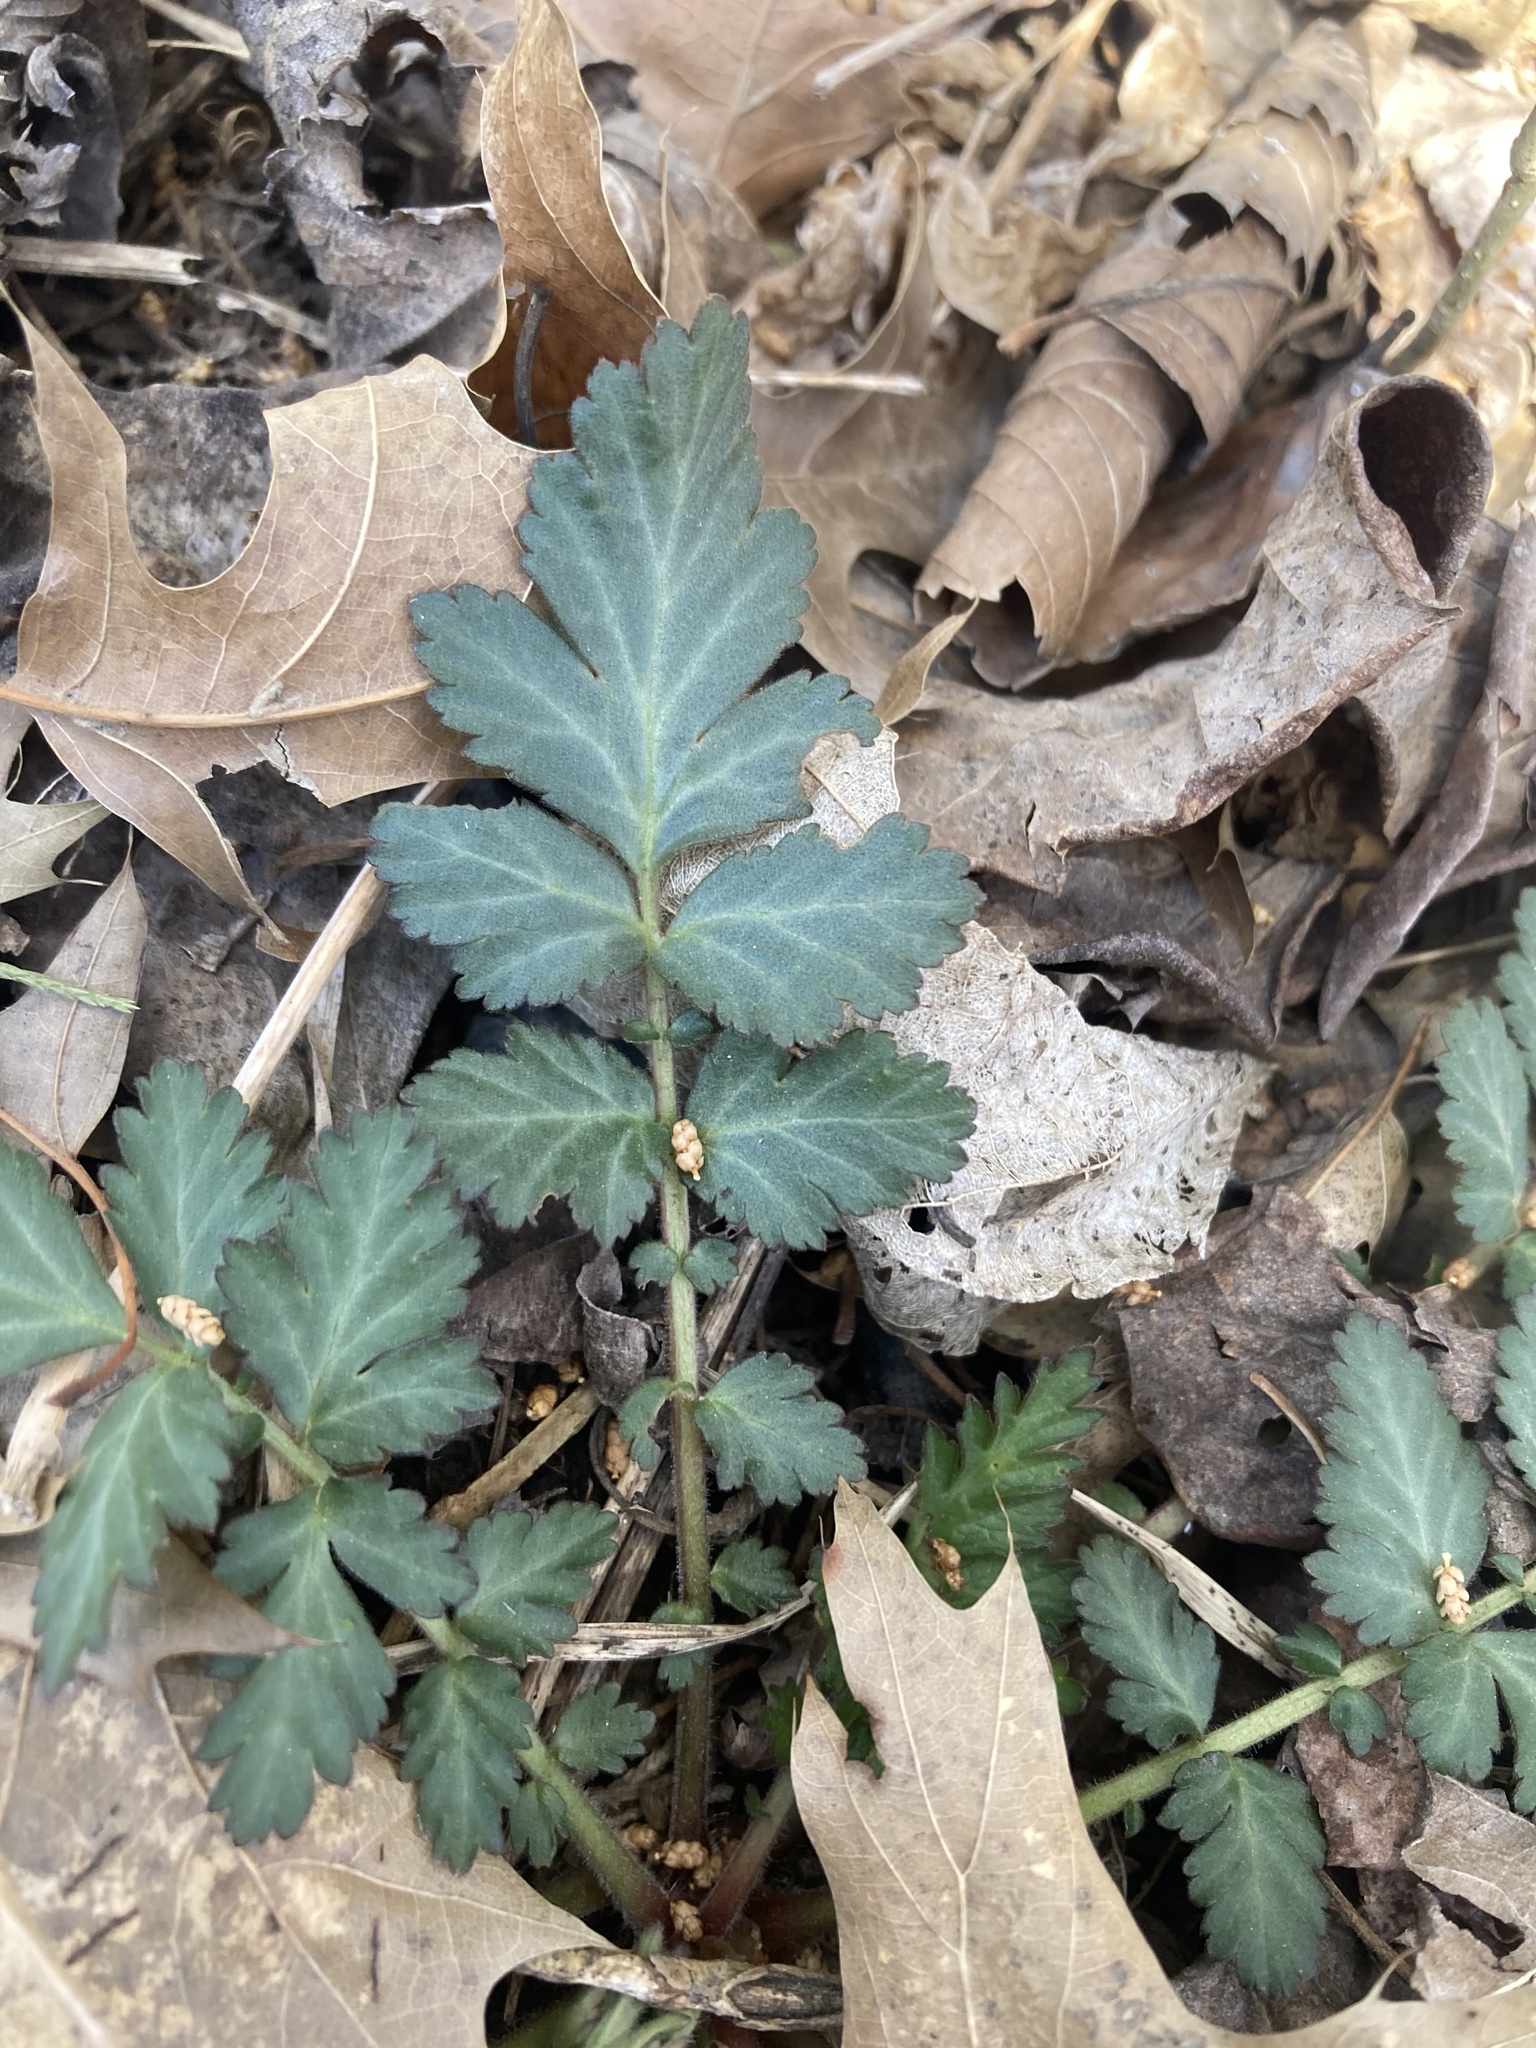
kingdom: Plantae
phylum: Tracheophyta
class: Magnoliopsida
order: Rosales
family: Rosaceae
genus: Geum
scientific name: Geum canadense
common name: White avens
